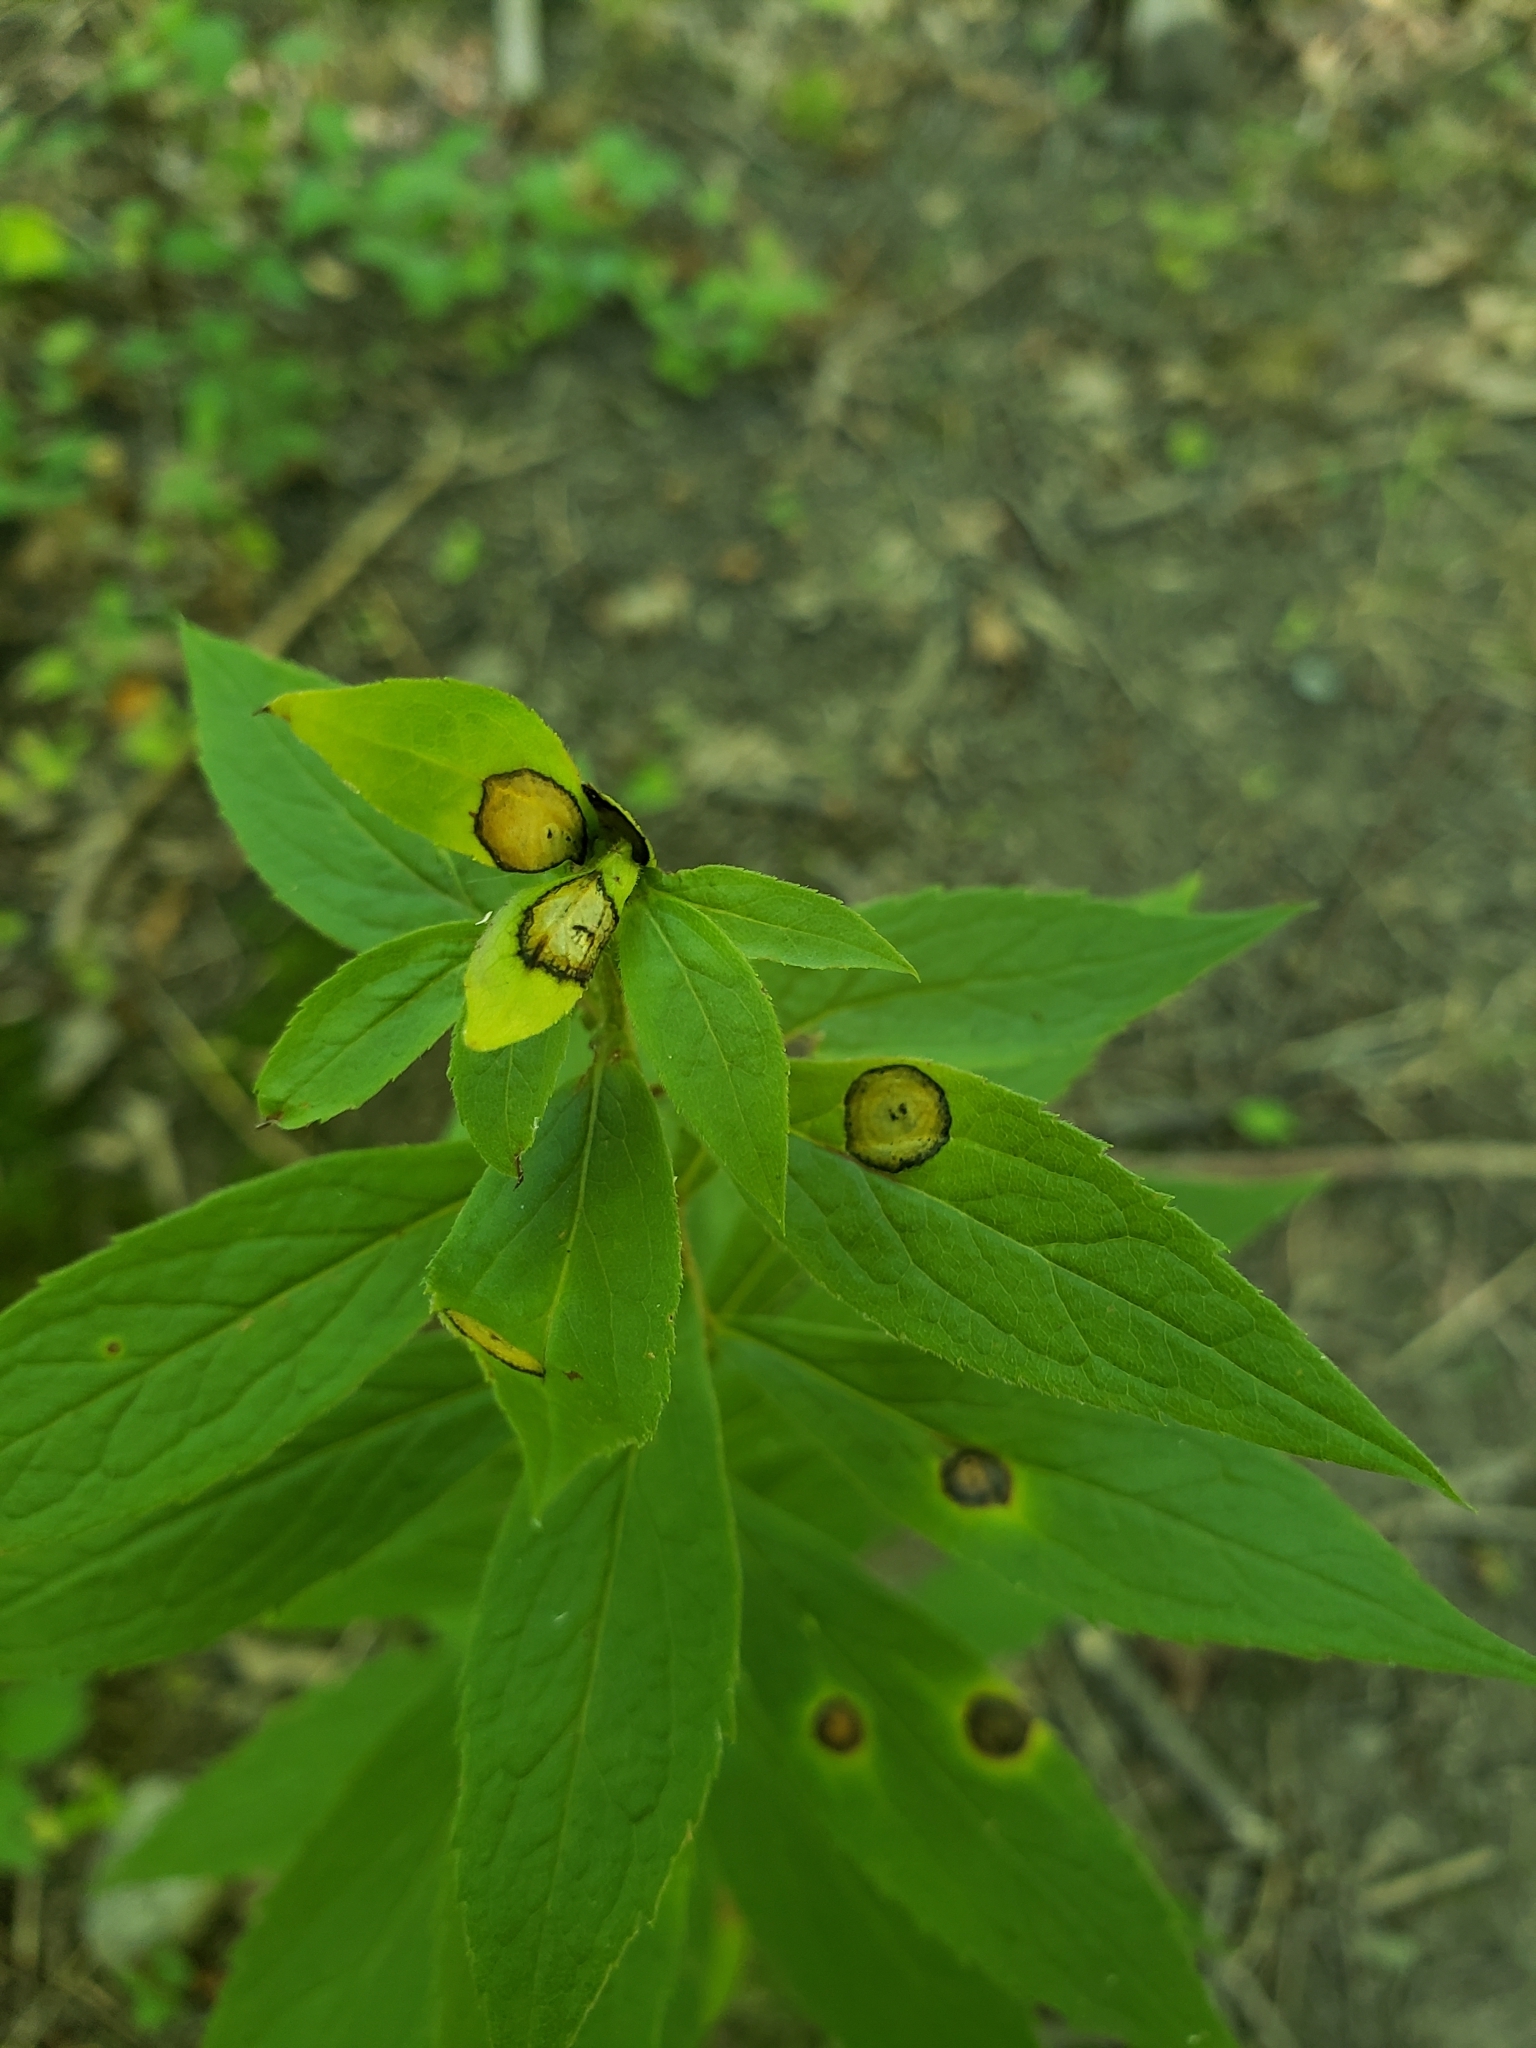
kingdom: Animalia
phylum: Arthropoda
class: Insecta
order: Diptera
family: Cecidomyiidae
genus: Asteromyia
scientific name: Asteromyia carbonifera
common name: Carbonifera goldenrod gall midge
